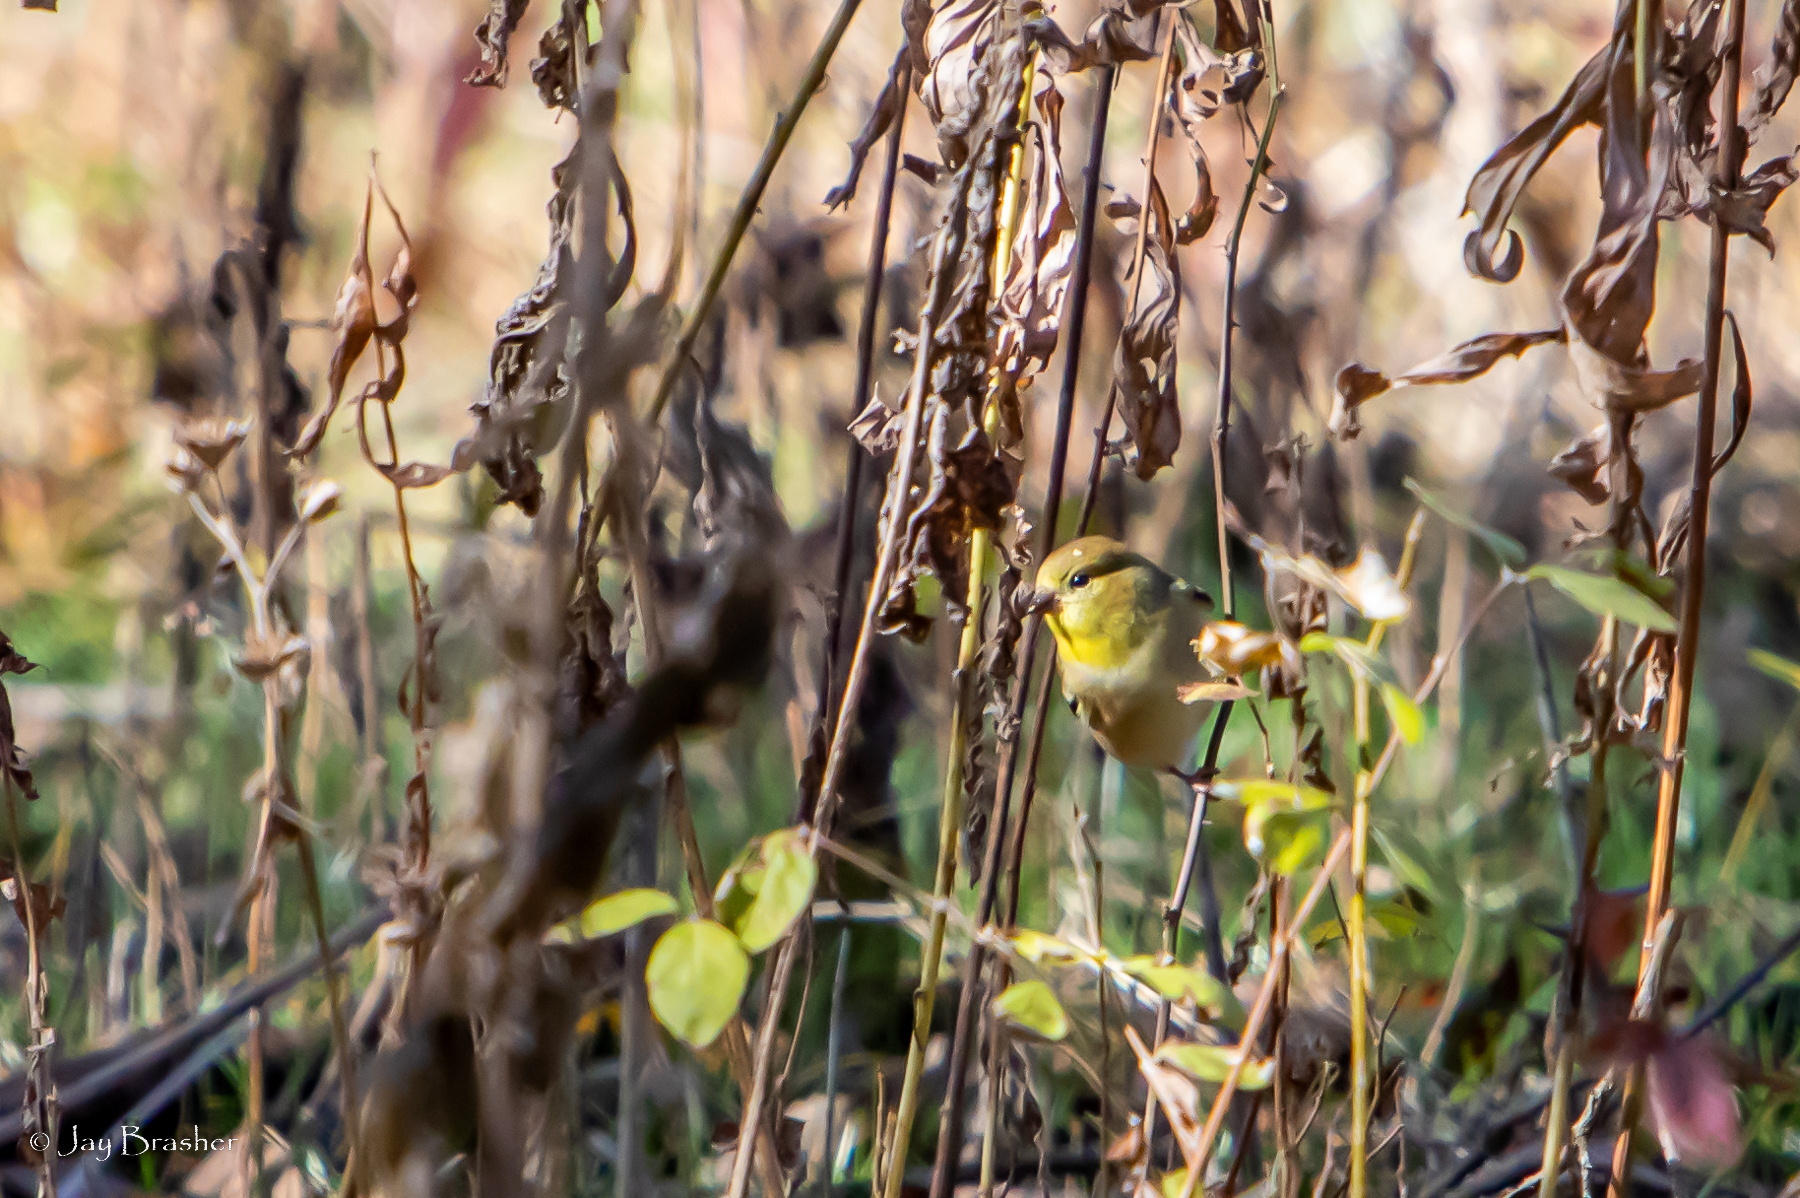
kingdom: Animalia
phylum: Chordata
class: Aves
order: Passeriformes
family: Fringillidae
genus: Spinus
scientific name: Spinus tristis
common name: American goldfinch
